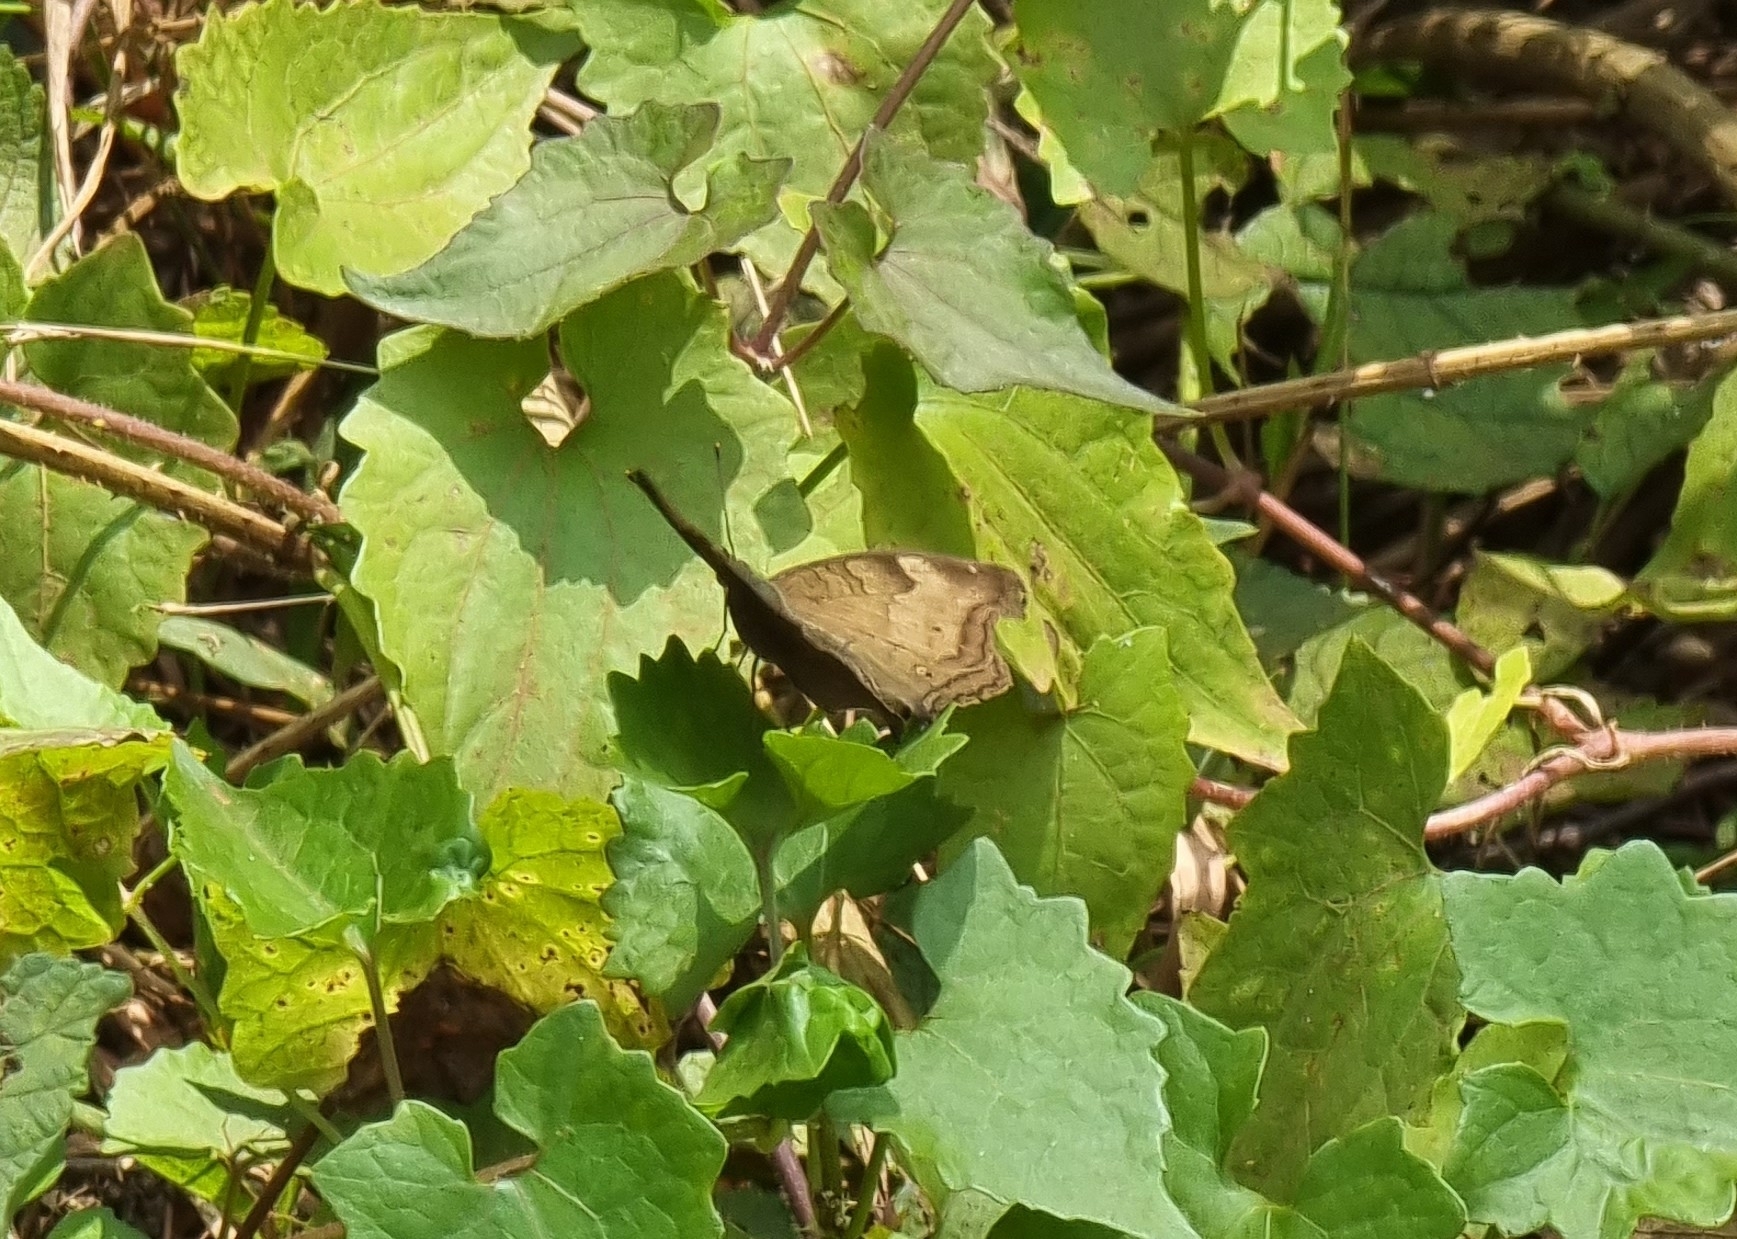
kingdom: Animalia
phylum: Arthropoda
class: Insecta
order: Lepidoptera
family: Nymphalidae
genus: Junonia
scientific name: Junonia iphita
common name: Chocolate pansy
